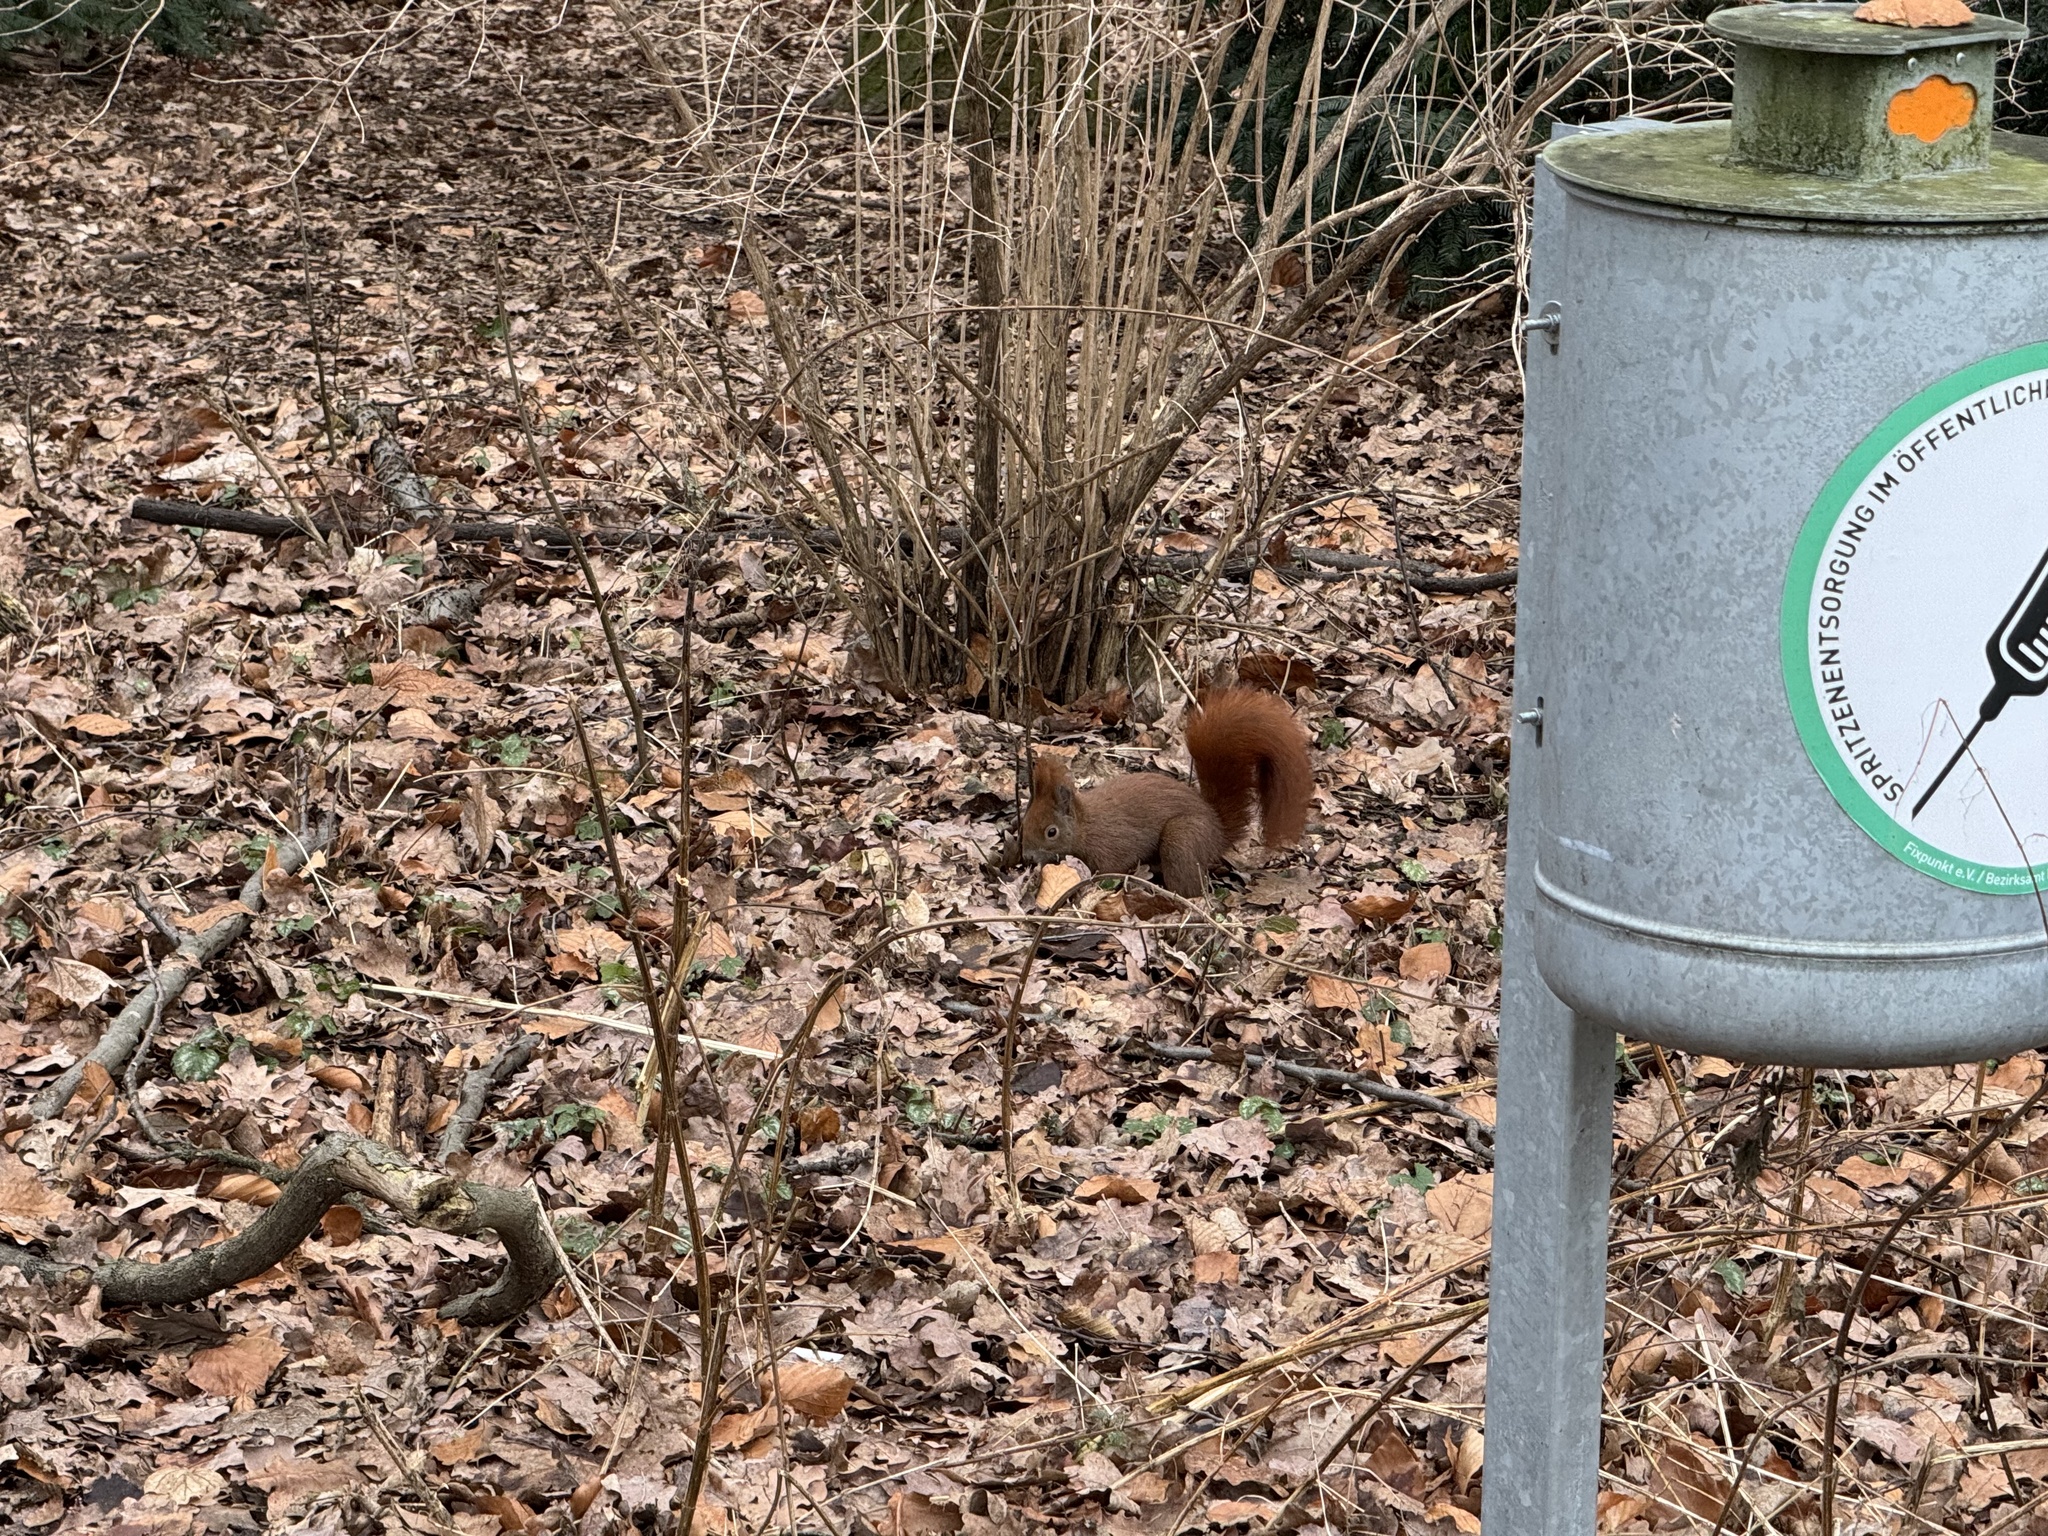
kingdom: Animalia
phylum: Chordata
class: Mammalia
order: Rodentia
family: Sciuridae
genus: Sciurus
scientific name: Sciurus vulgaris
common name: Eurasian red squirrel
